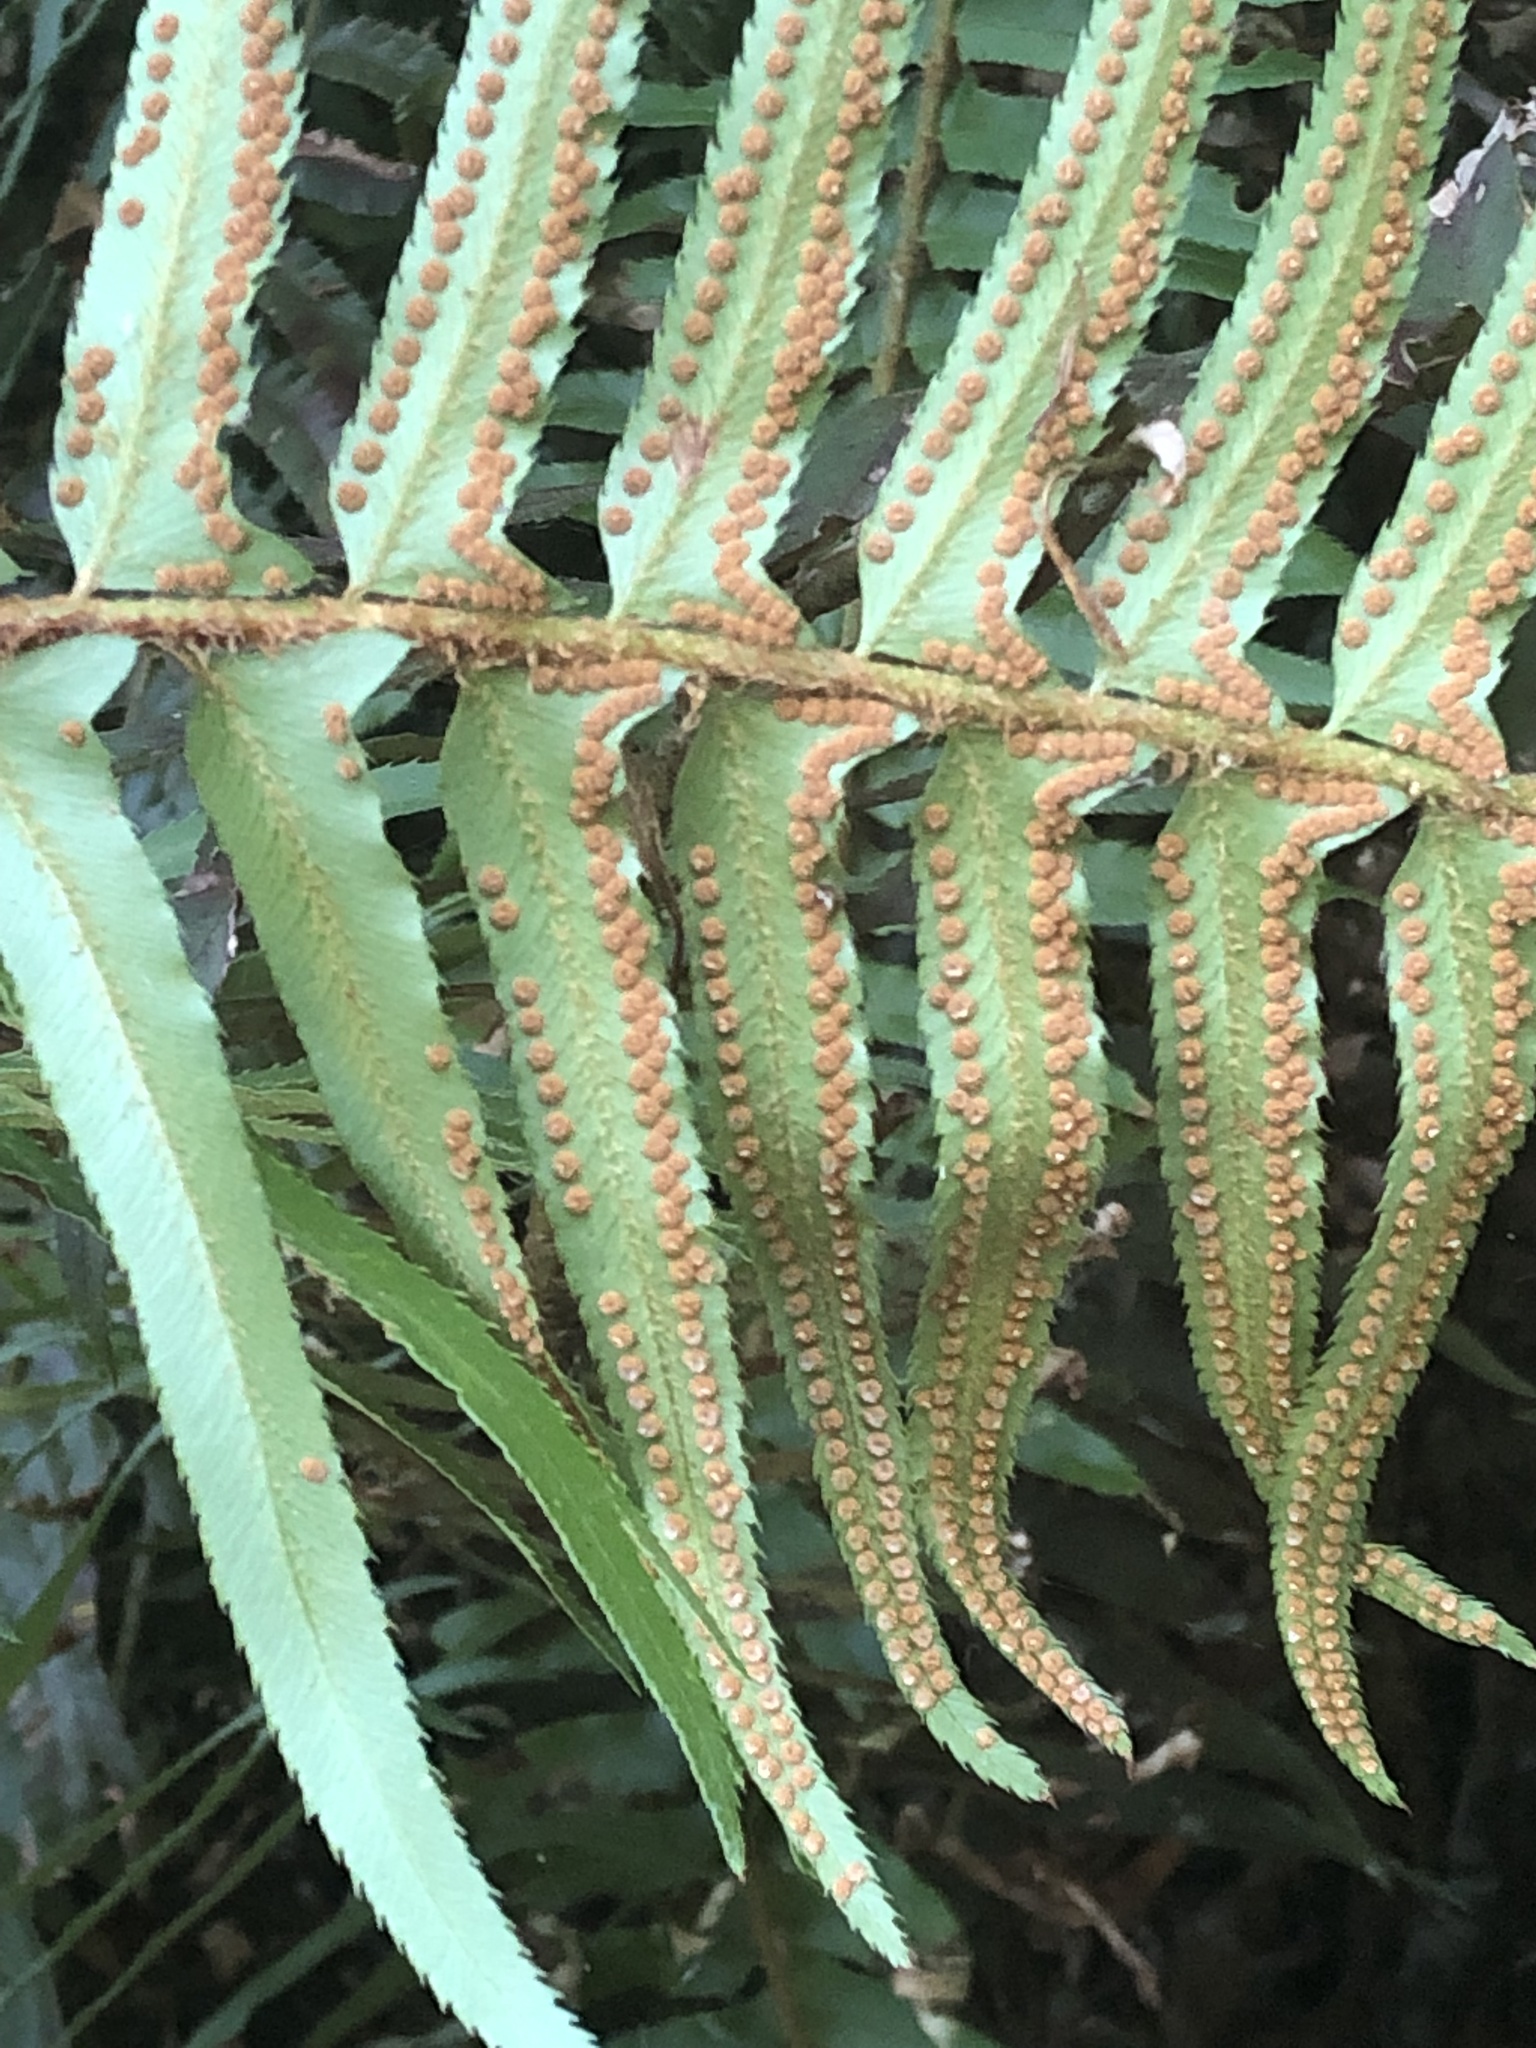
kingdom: Plantae
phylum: Tracheophyta
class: Polypodiopsida
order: Polypodiales
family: Dryopteridaceae
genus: Polystichum
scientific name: Polystichum munitum
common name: Western sword-fern
